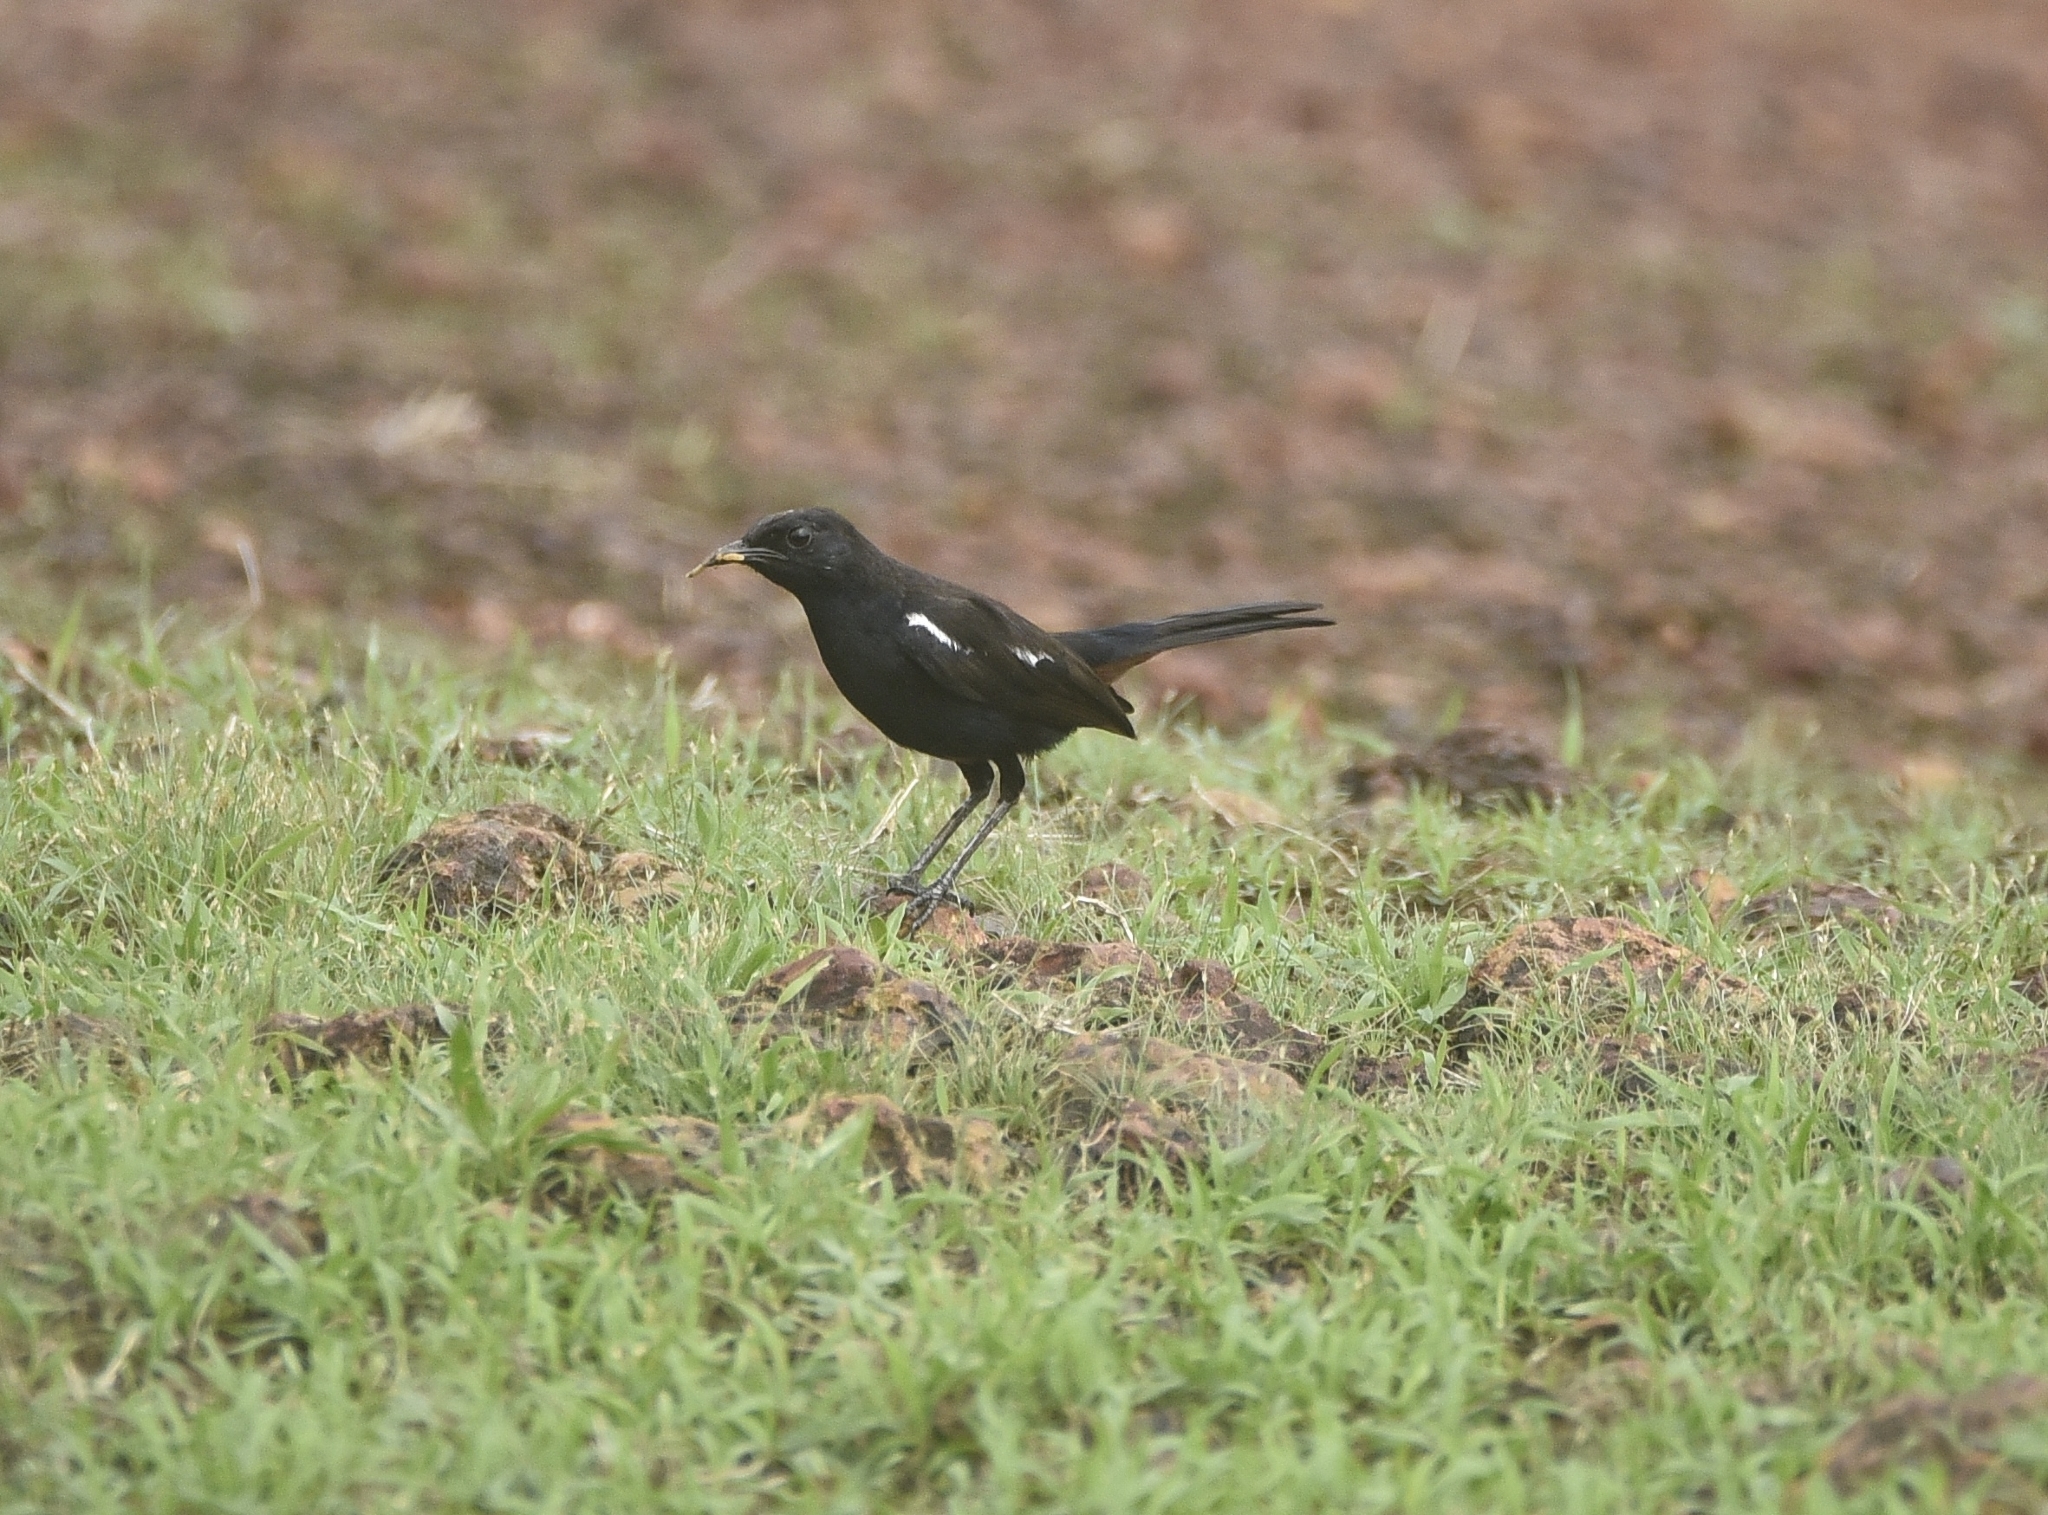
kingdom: Animalia
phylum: Chordata
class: Aves
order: Passeriformes
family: Muscicapidae
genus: Saxicoloides
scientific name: Saxicoloides fulicatus
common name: Indian robin
